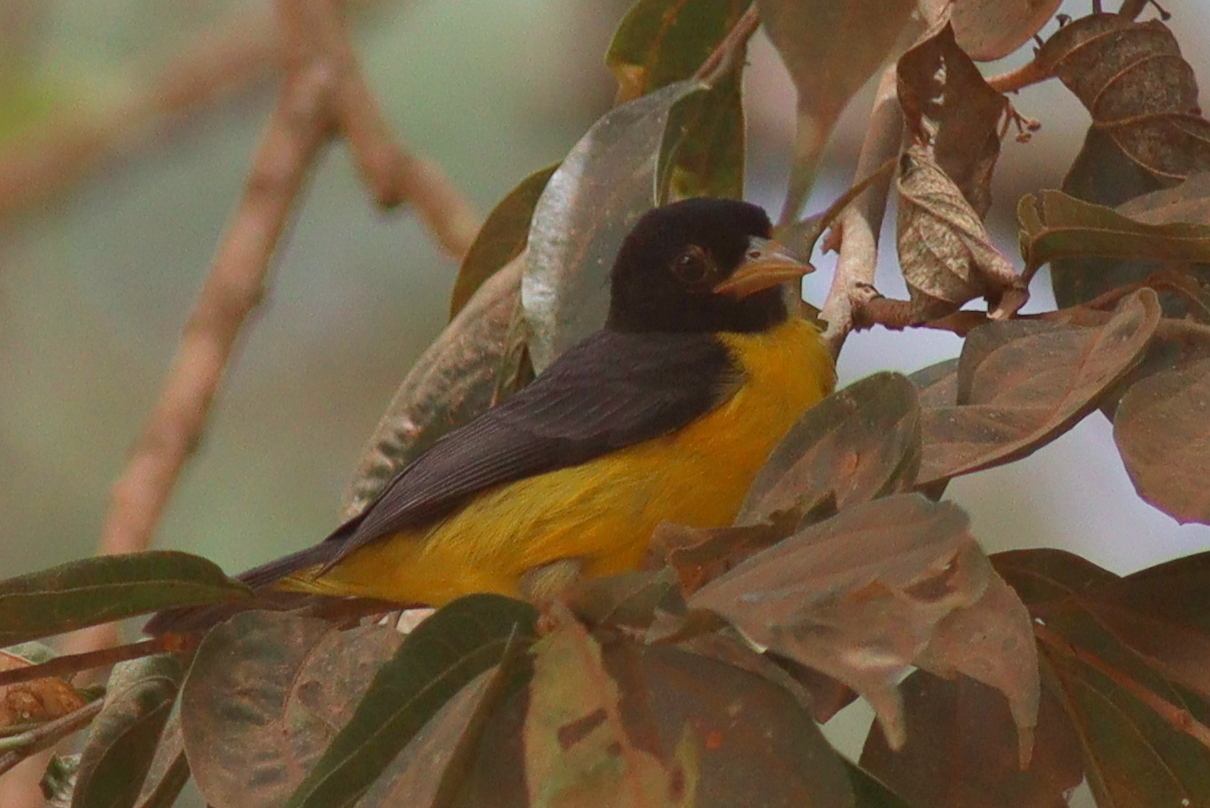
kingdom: Animalia
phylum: Chordata
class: Aves
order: Passeriformes
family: Ploceidae
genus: Ploceus
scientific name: Ploceus bicolor
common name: Dark-backed weaver
